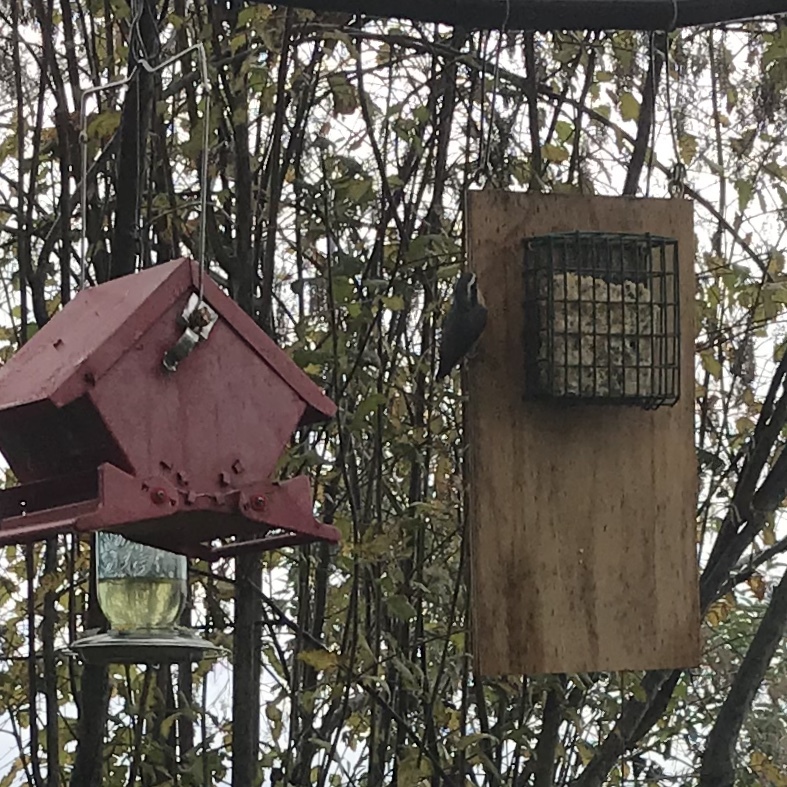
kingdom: Animalia
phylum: Chordata
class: Aves
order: Passeriformes
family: Sittidae
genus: Sitta
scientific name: Sitta canadensis
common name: Red-breasted nuthatch
